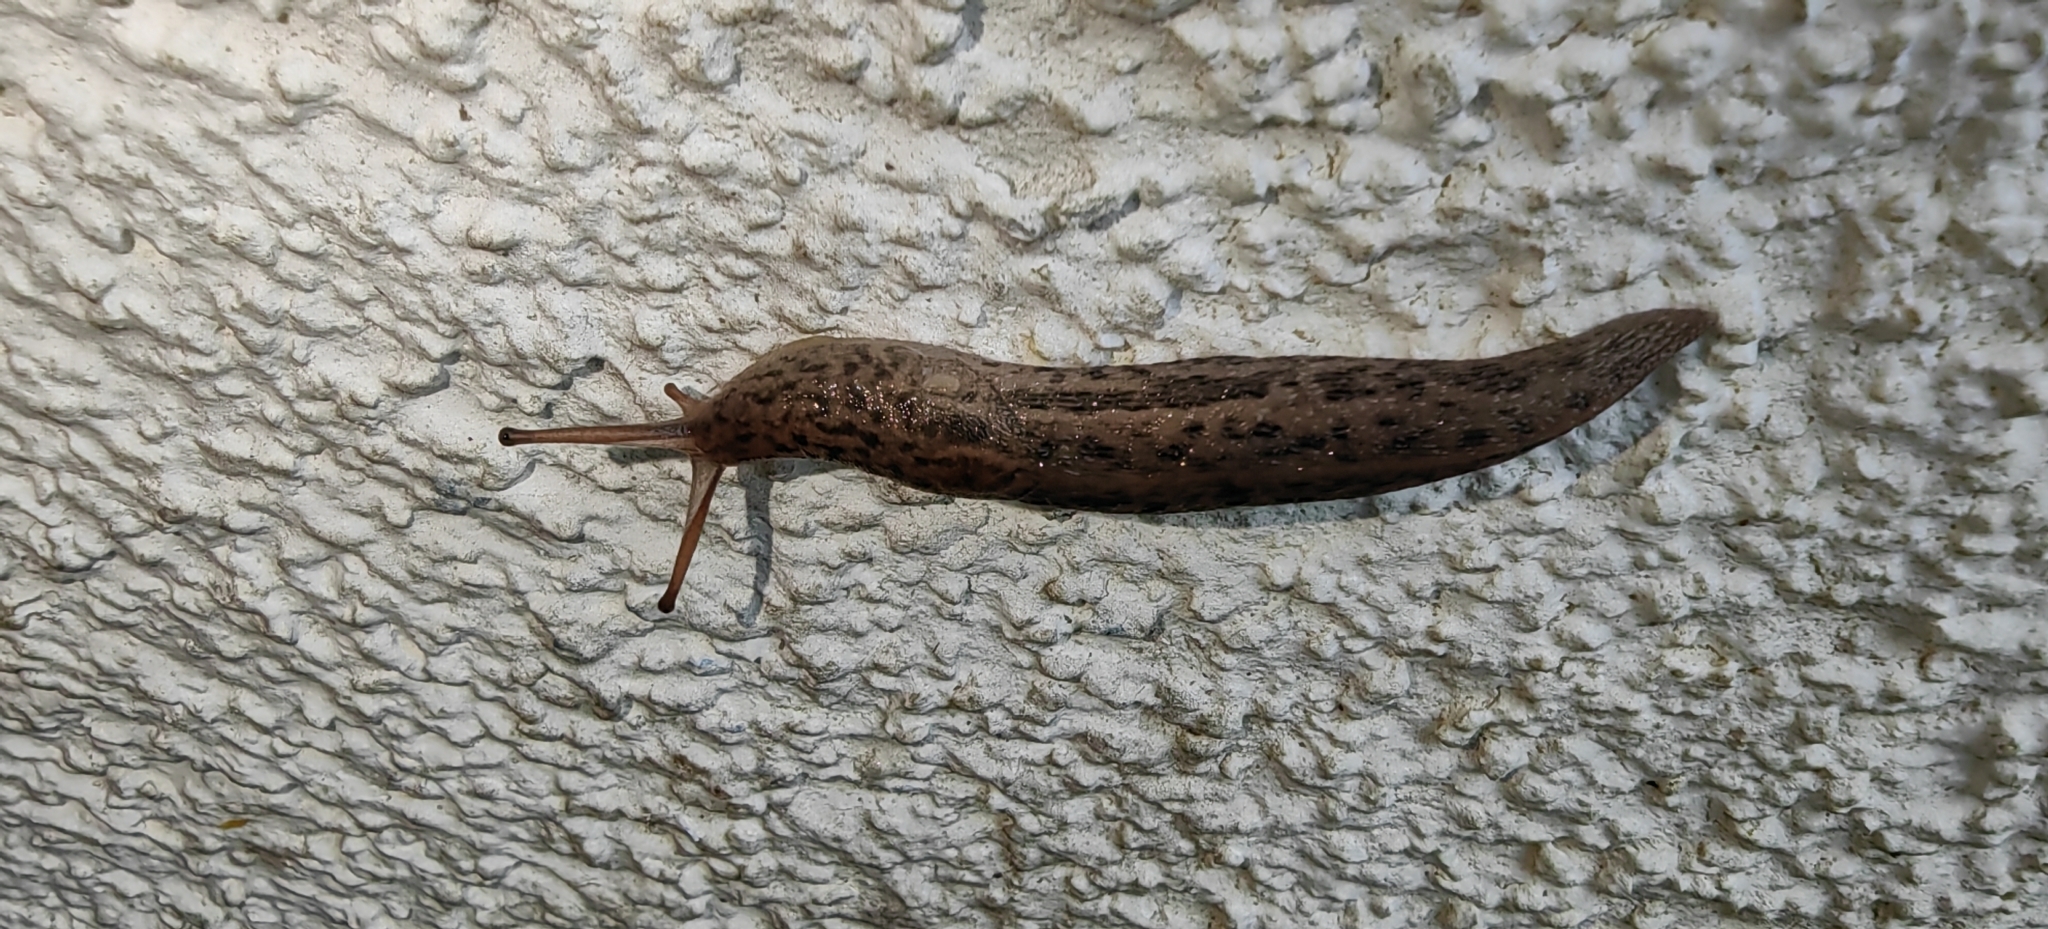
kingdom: Animalia
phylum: Mollusca
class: Gastropoda
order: Stylommatophora
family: Limacidae
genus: Limax
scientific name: Limax maximus
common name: Great grey slug
